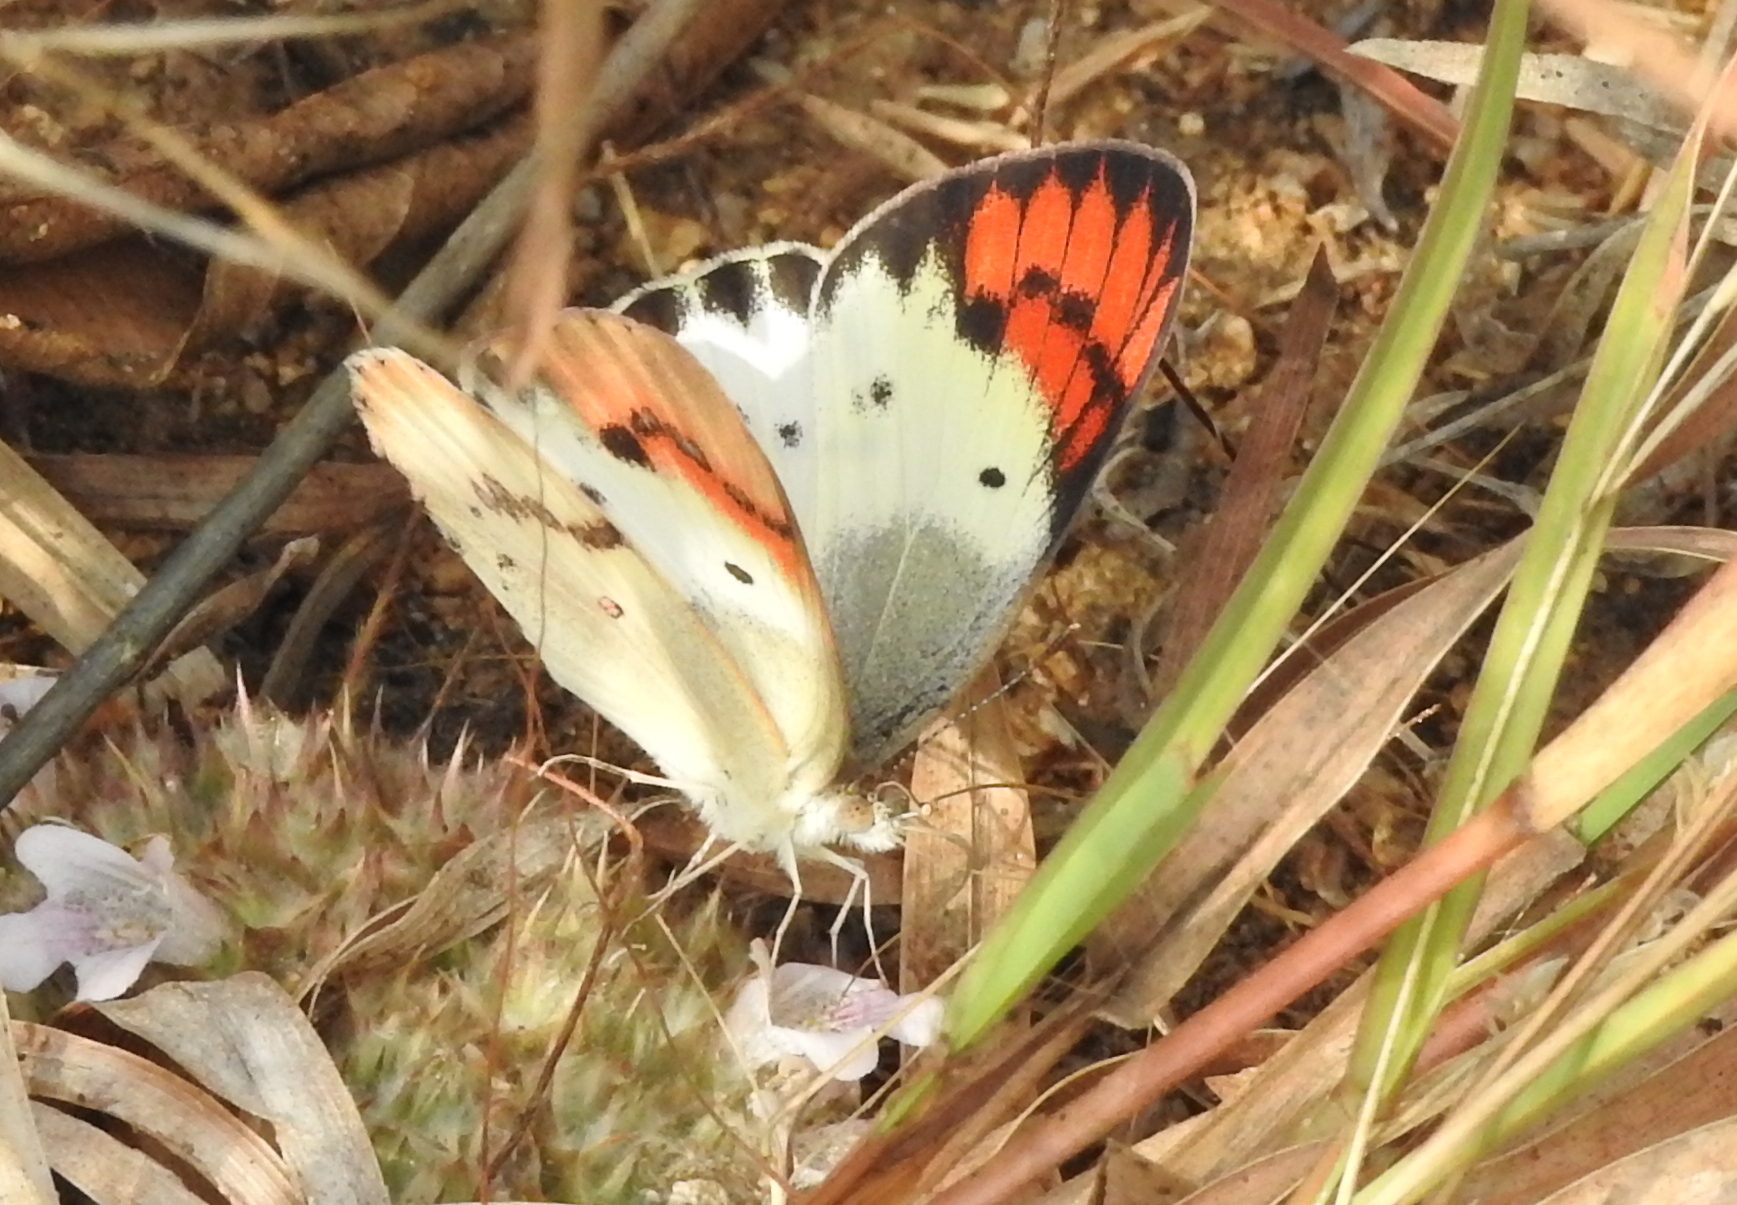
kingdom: Animalia
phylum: Arthropoda
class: Insecta
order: Lepidoptera
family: Pieridae
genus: Colotis
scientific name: Colotis danae
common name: Crimson tip
